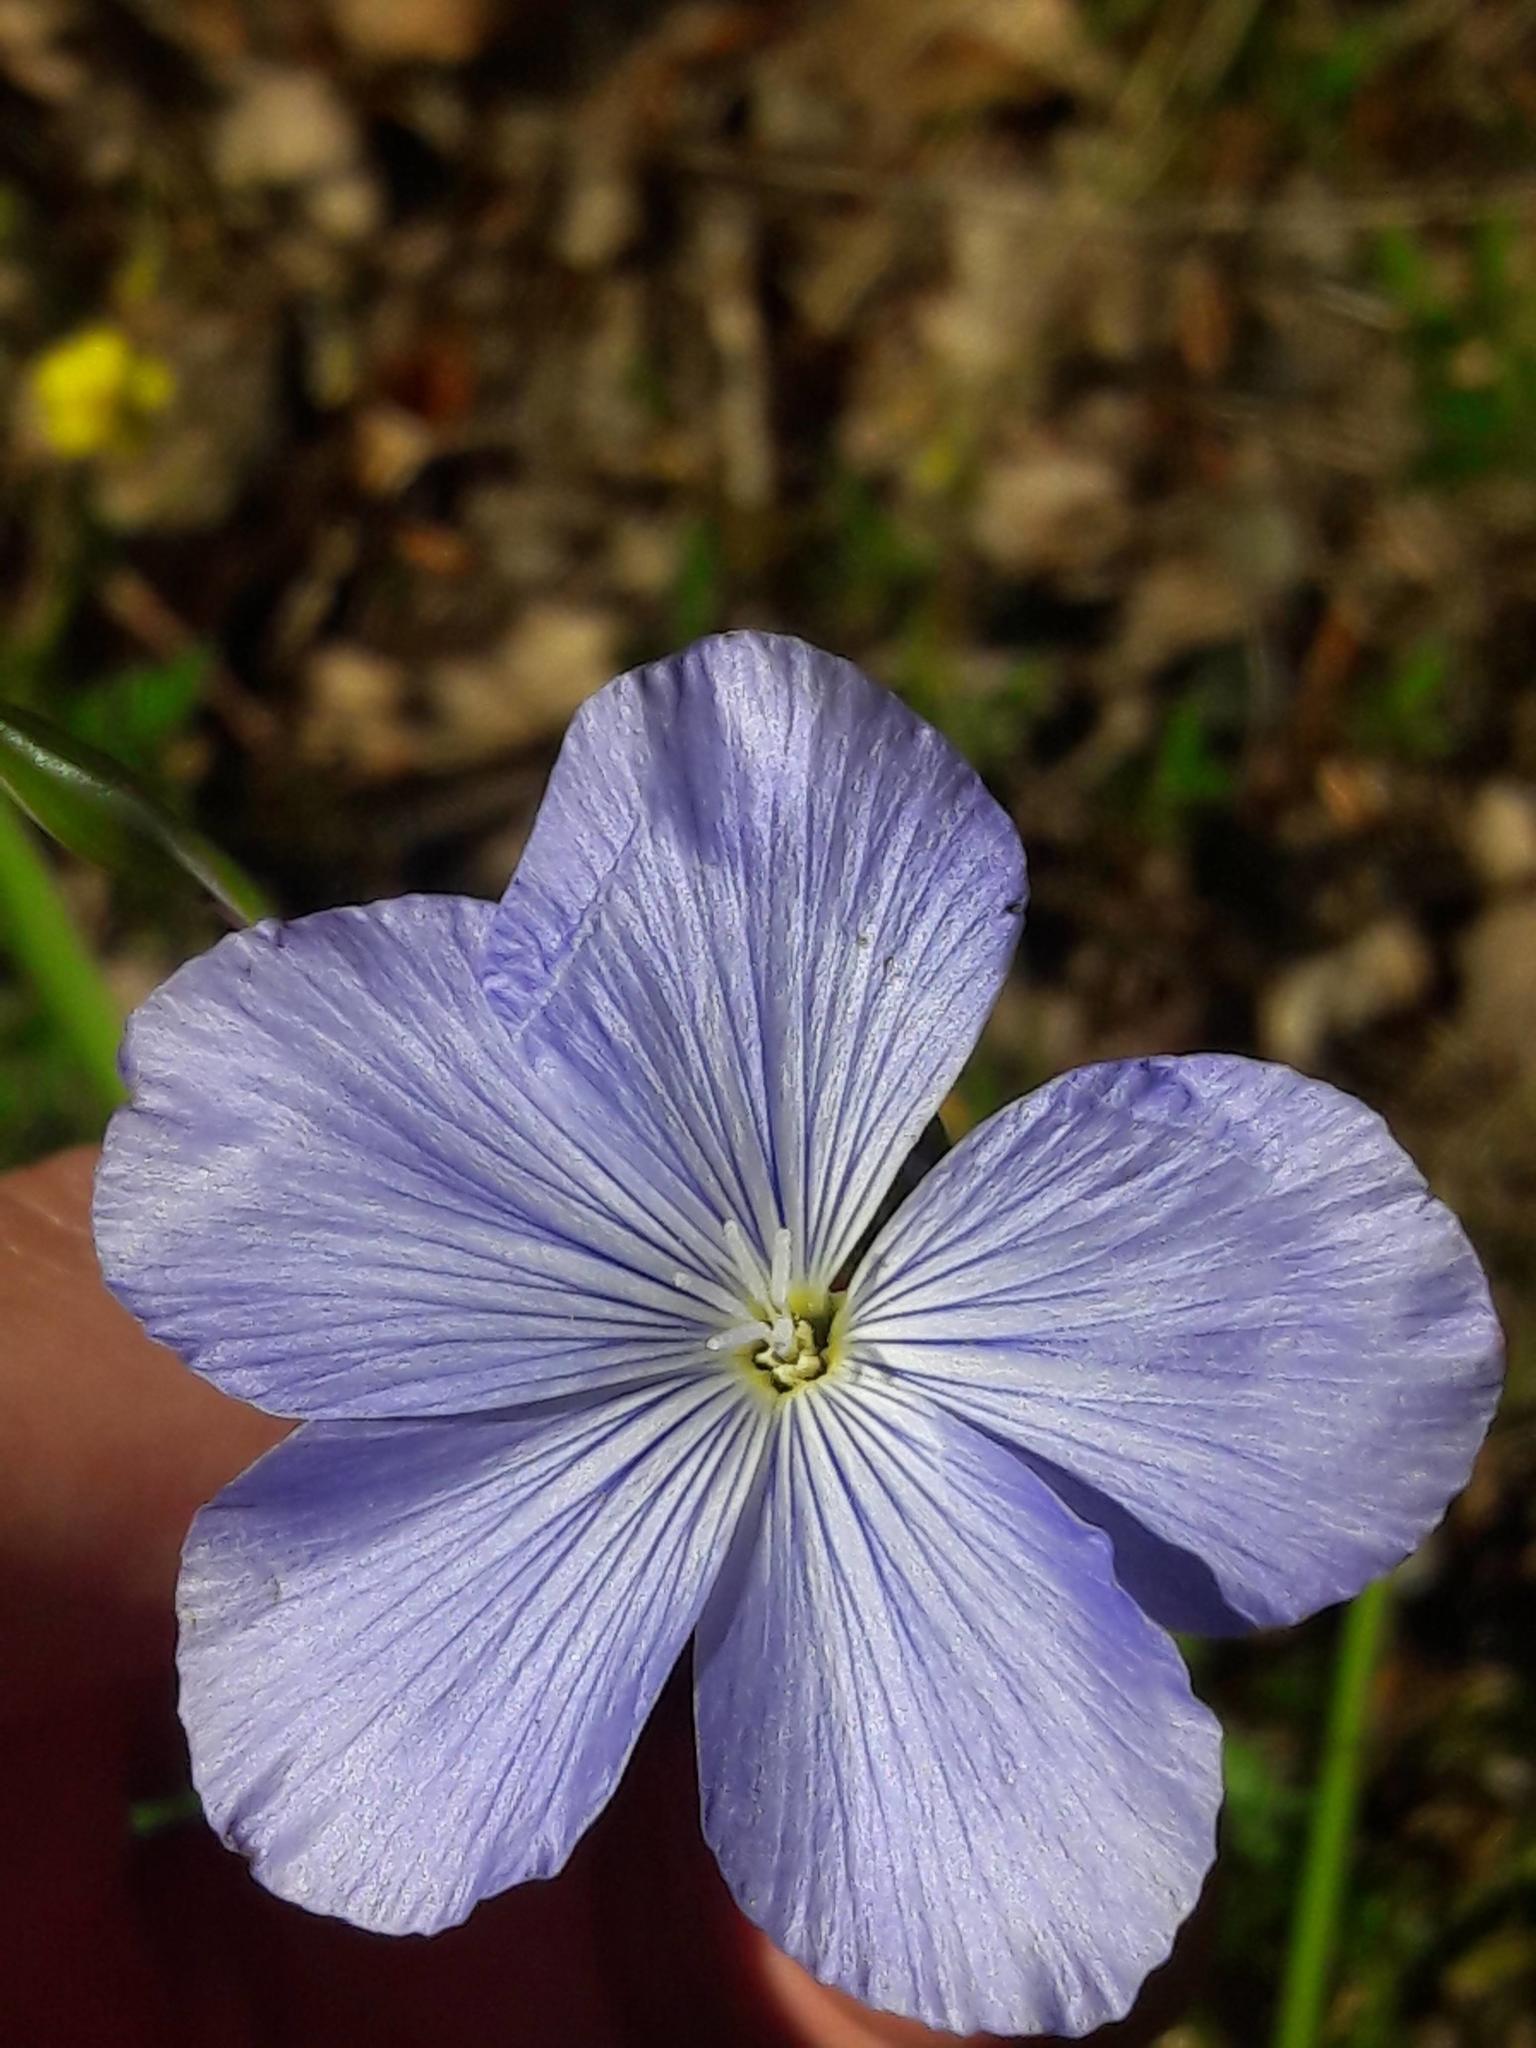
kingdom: Plantae
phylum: Tracheophyta
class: Magnoliopsida
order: Malpighiales
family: Linaceae
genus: Linum
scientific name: Linum narbonense
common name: Flax
